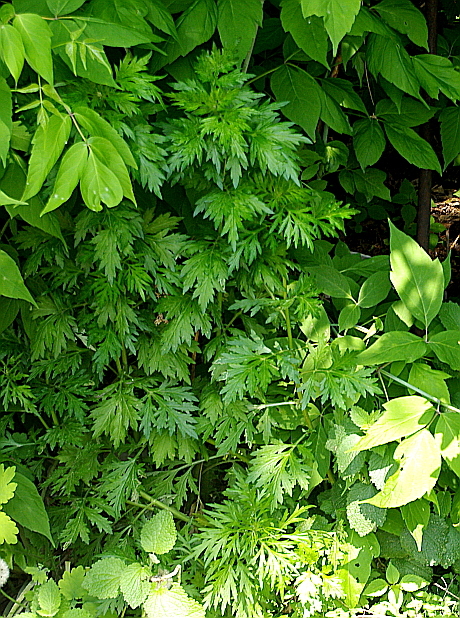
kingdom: Plantae
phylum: Tracheophyta
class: Magnoliopsida
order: Asterales
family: Asteraceae
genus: Artemisia
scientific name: Artemisia vulgaris
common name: Mugwort
